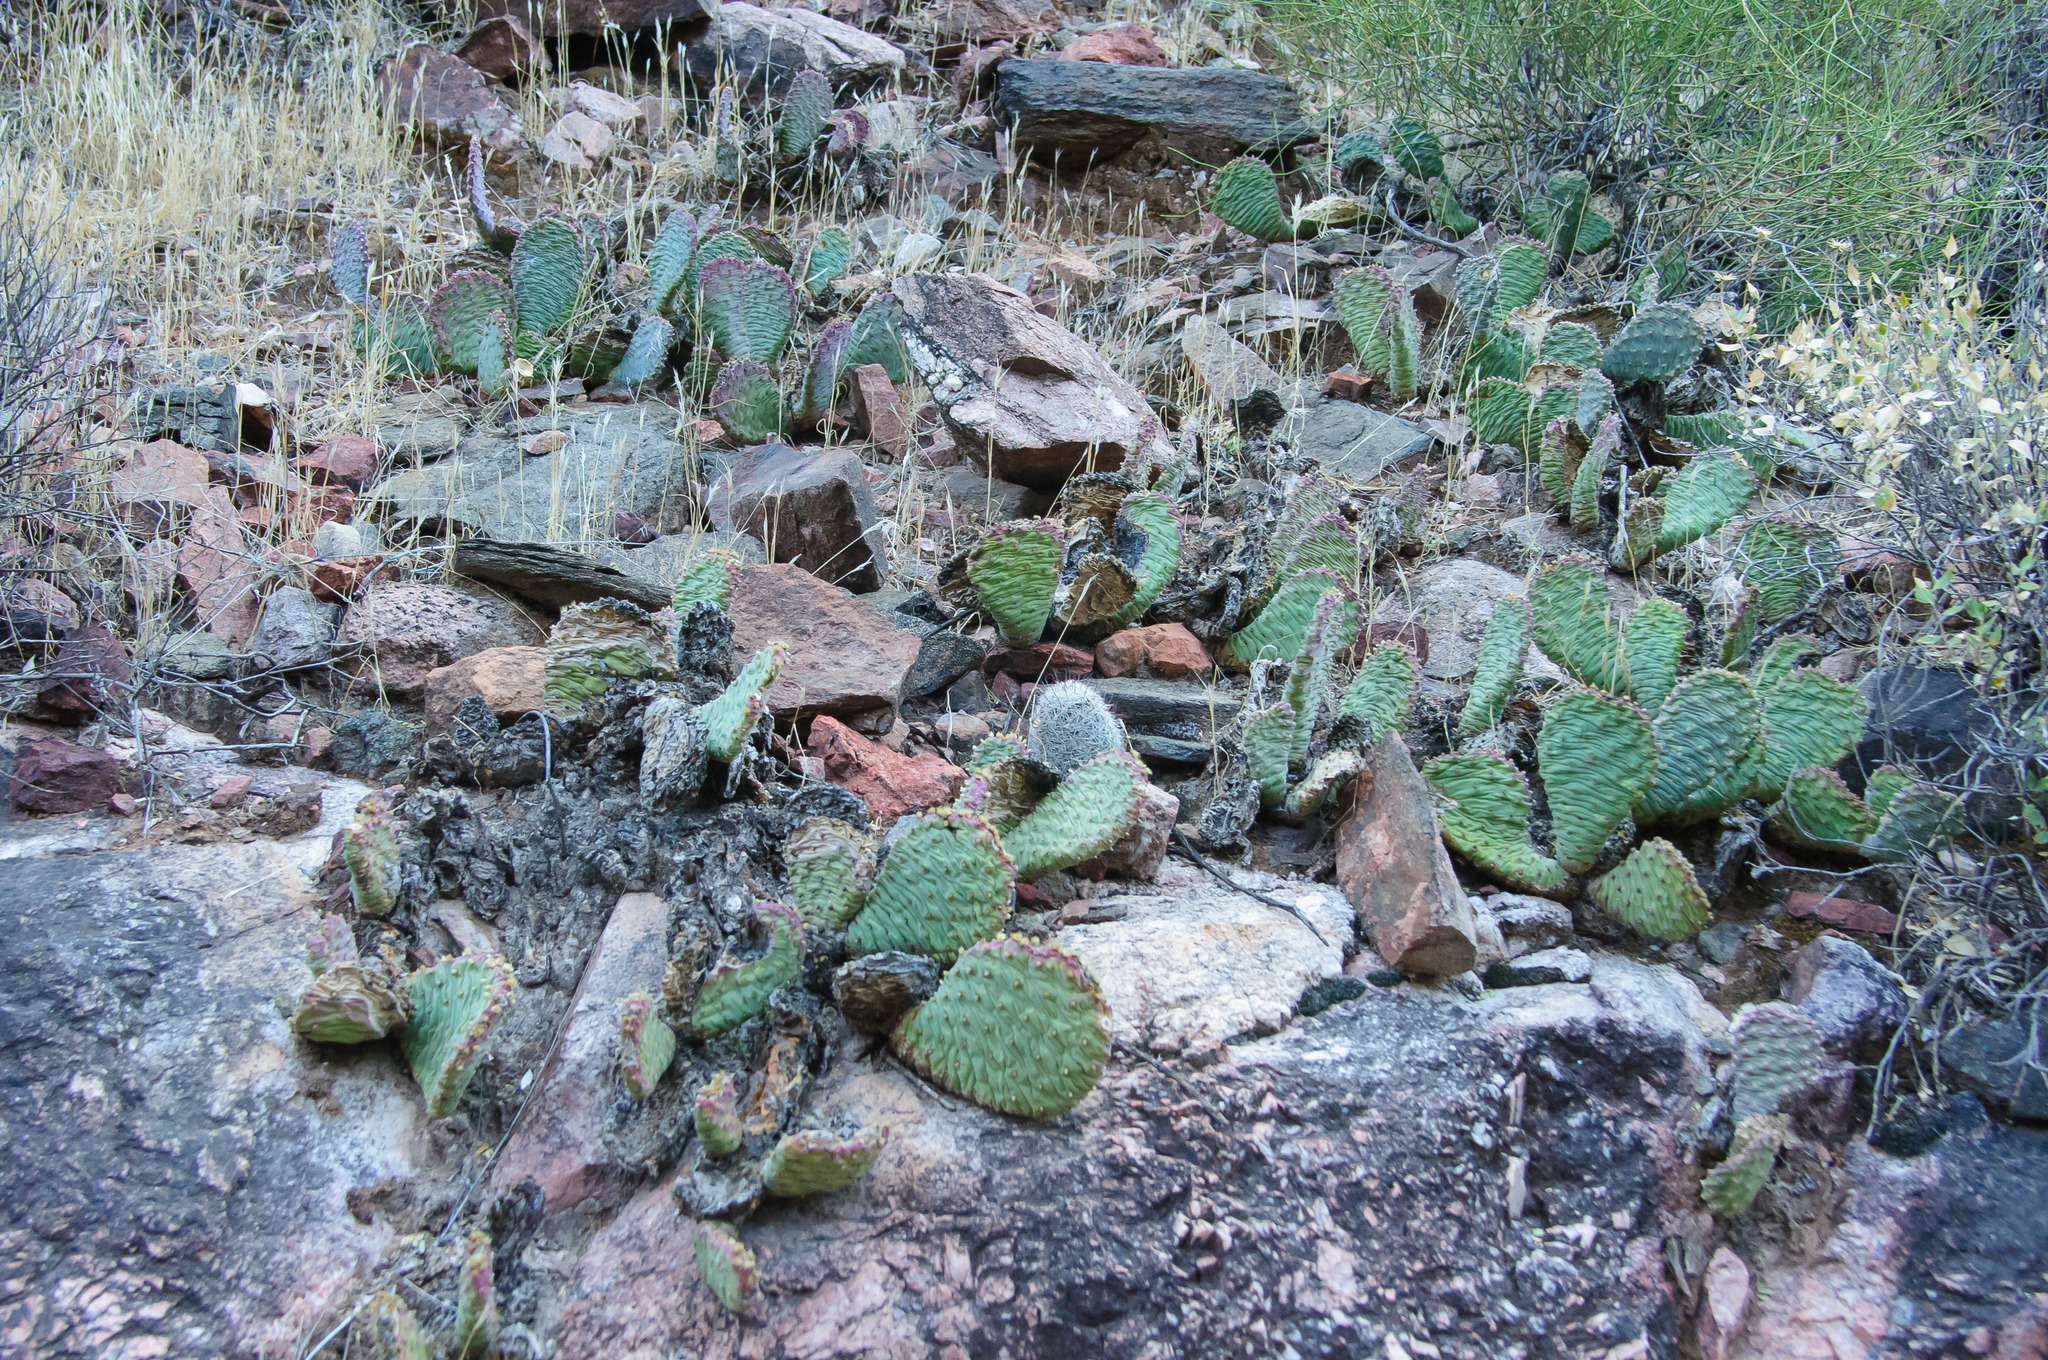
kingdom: Plantae
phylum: Tracheophyta
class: Magnoliopsida
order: Caryophyllales
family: Cactaceae
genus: Opuntia
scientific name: Opuntia basilaris
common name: Beavertail prickly-pear
